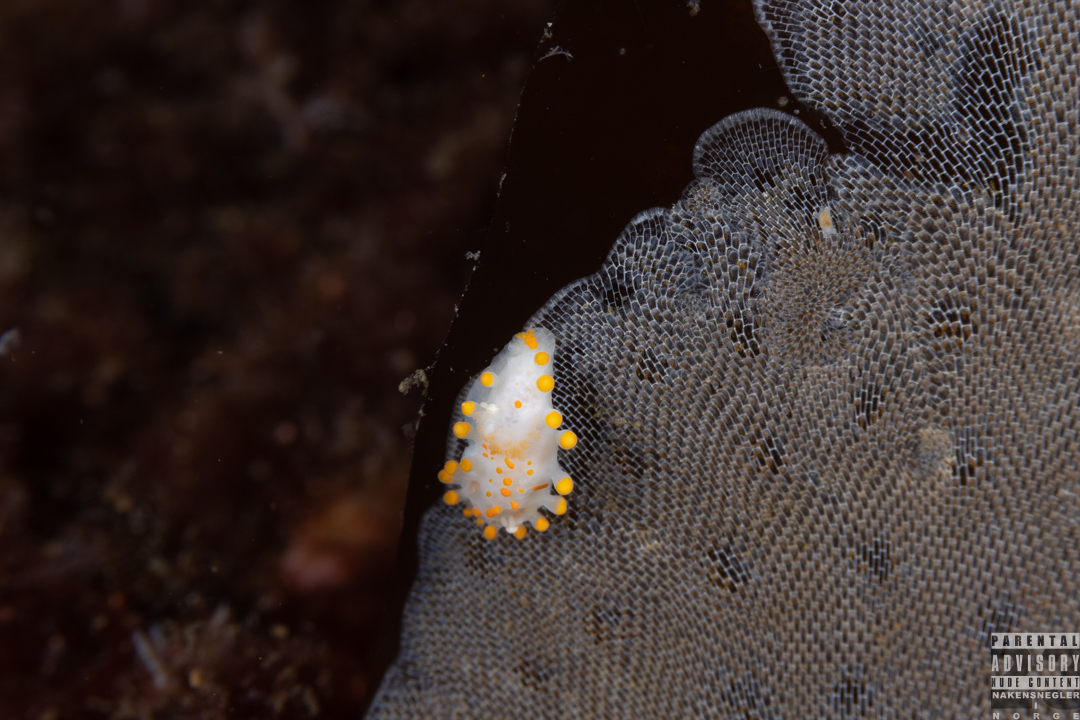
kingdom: Animalia
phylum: Mollusca
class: Gastropoda
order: Nudibranchia
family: Polyceridae
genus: Limacia
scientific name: Limacia clavigera
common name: Orange-clubbed sea slug
